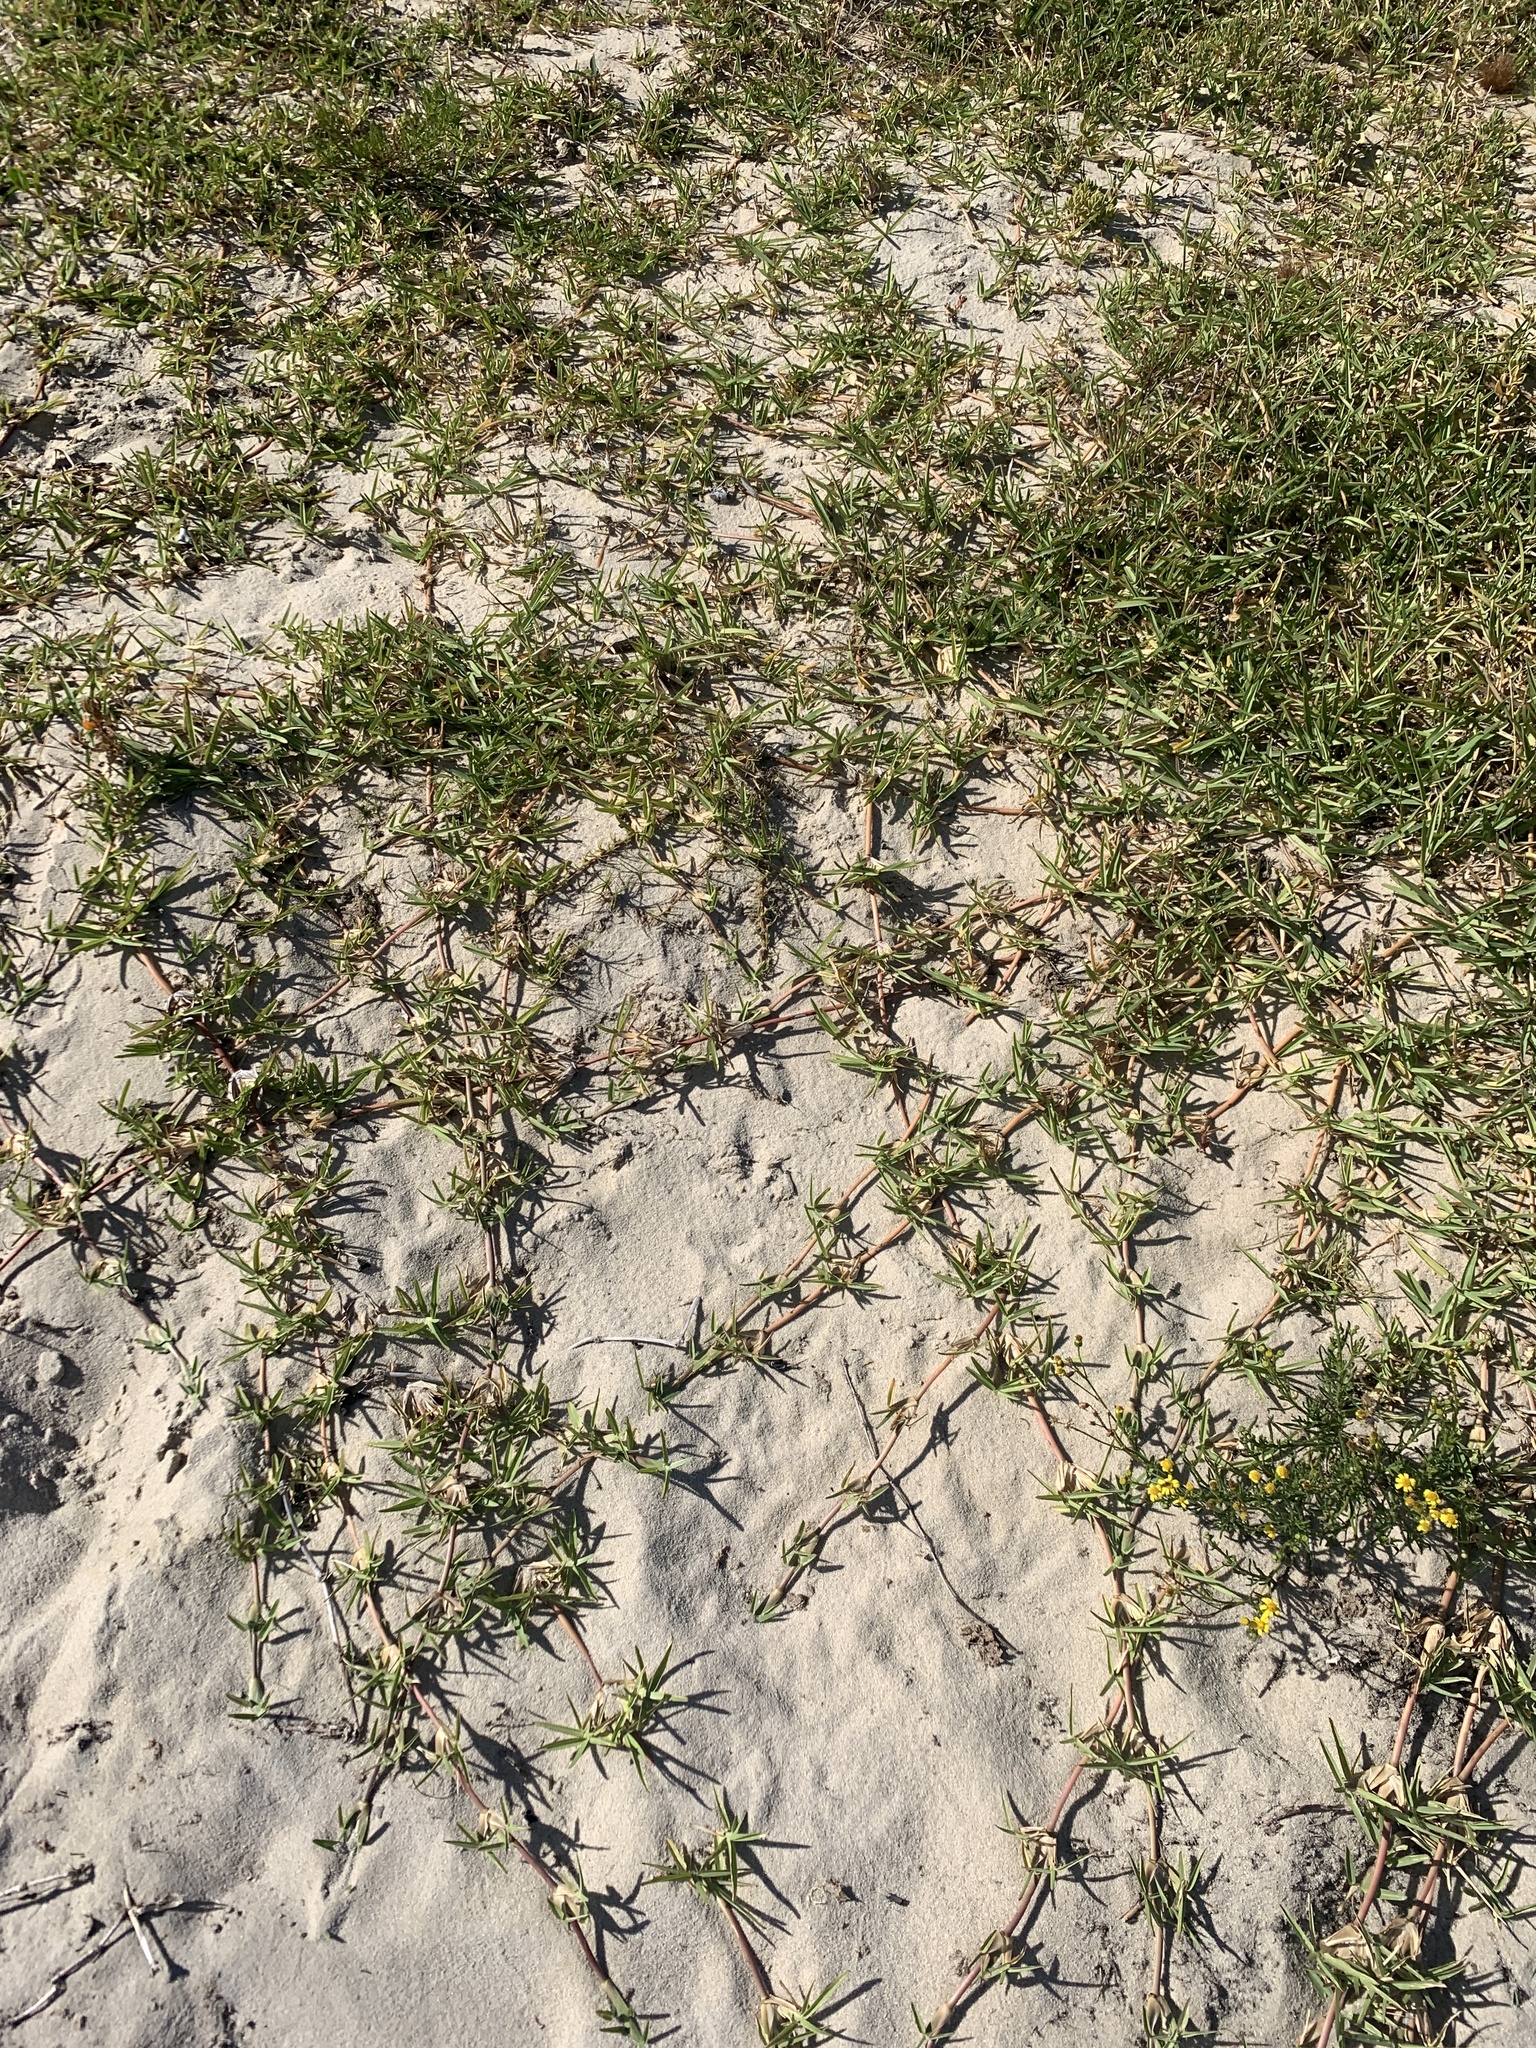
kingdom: Plantae
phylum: Tracheophyta
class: Liliopsida
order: Poales
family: Poaceae
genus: Stenotaphrum
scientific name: Stenotaphrum secundatum
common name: St. augustine grass
